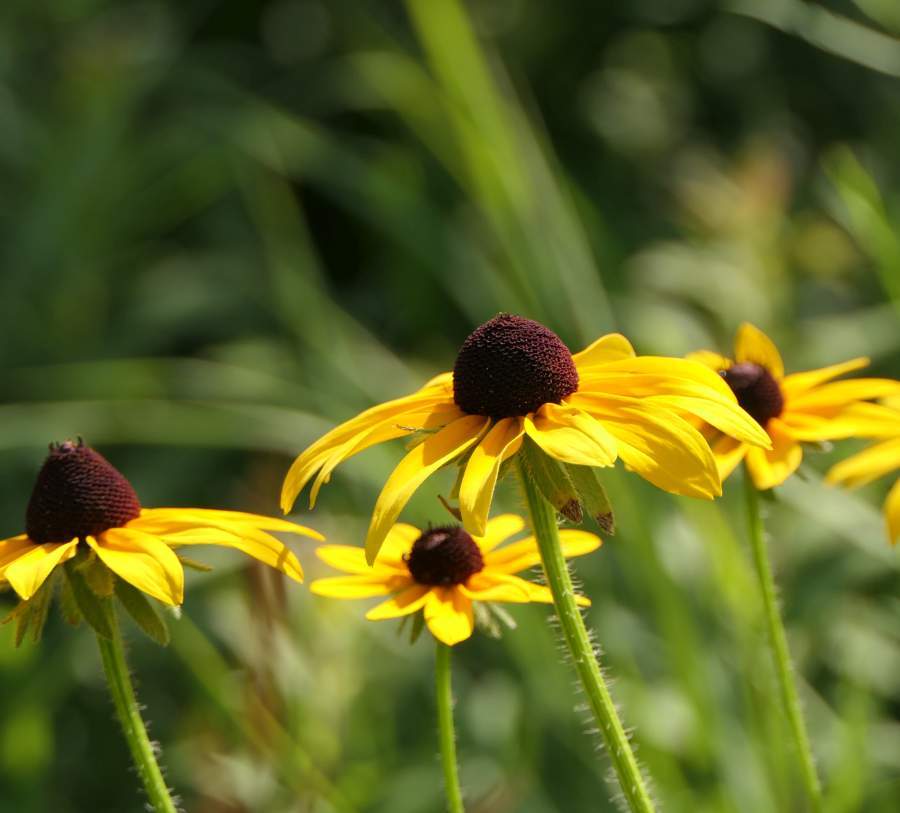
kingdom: Plantae
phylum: Tracheophyta
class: Magnoliopsida
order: Asterales
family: Asteraceae
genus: Rudbeckia
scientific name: Rudbeckia hirta
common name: Black-eyed-susan
